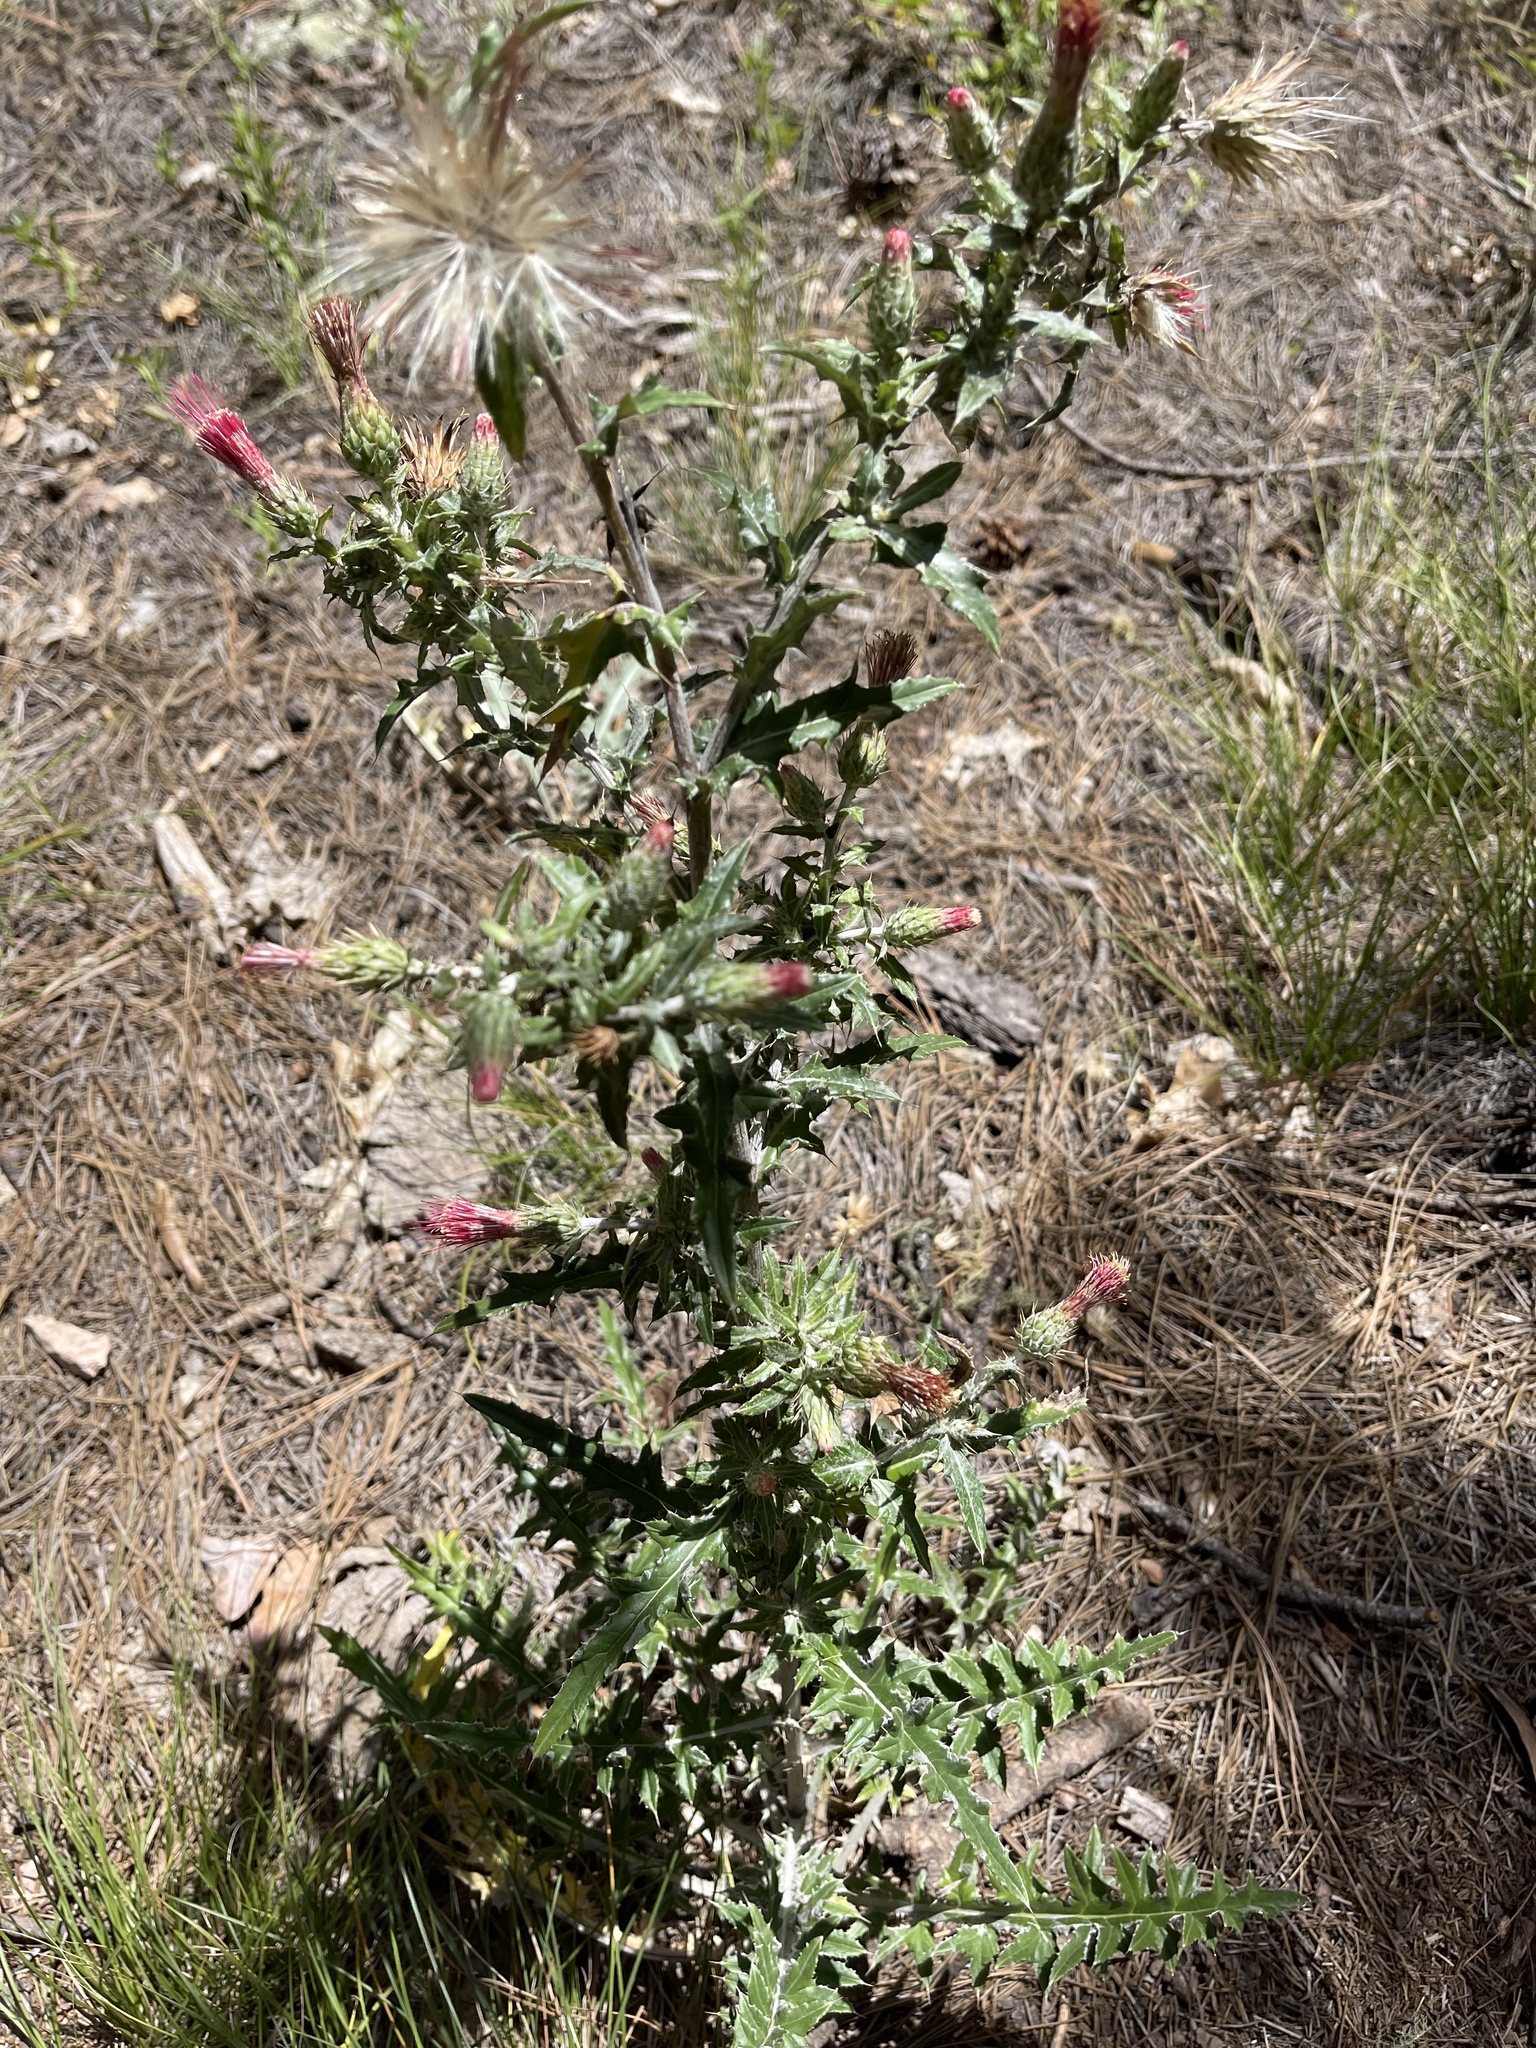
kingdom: Plantae
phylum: Tracheophyta
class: Magnoliopsida
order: Asterales
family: Asteraceae
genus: Cirsium
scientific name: Cirsium arizonicum
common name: Arizona thistle
